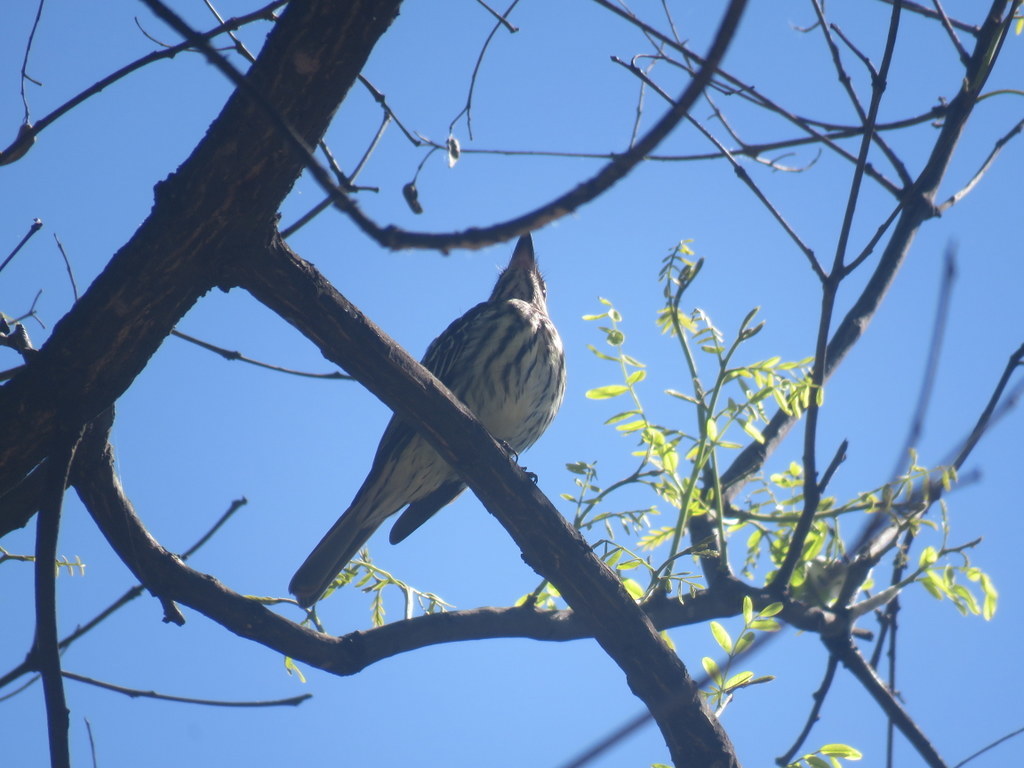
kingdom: Animalia
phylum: Chordata
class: Aves
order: Passeriformes
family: Tyrannidae
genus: Myiodynastes
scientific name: Myiodynastes maculatus
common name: Streaked flycatcher
